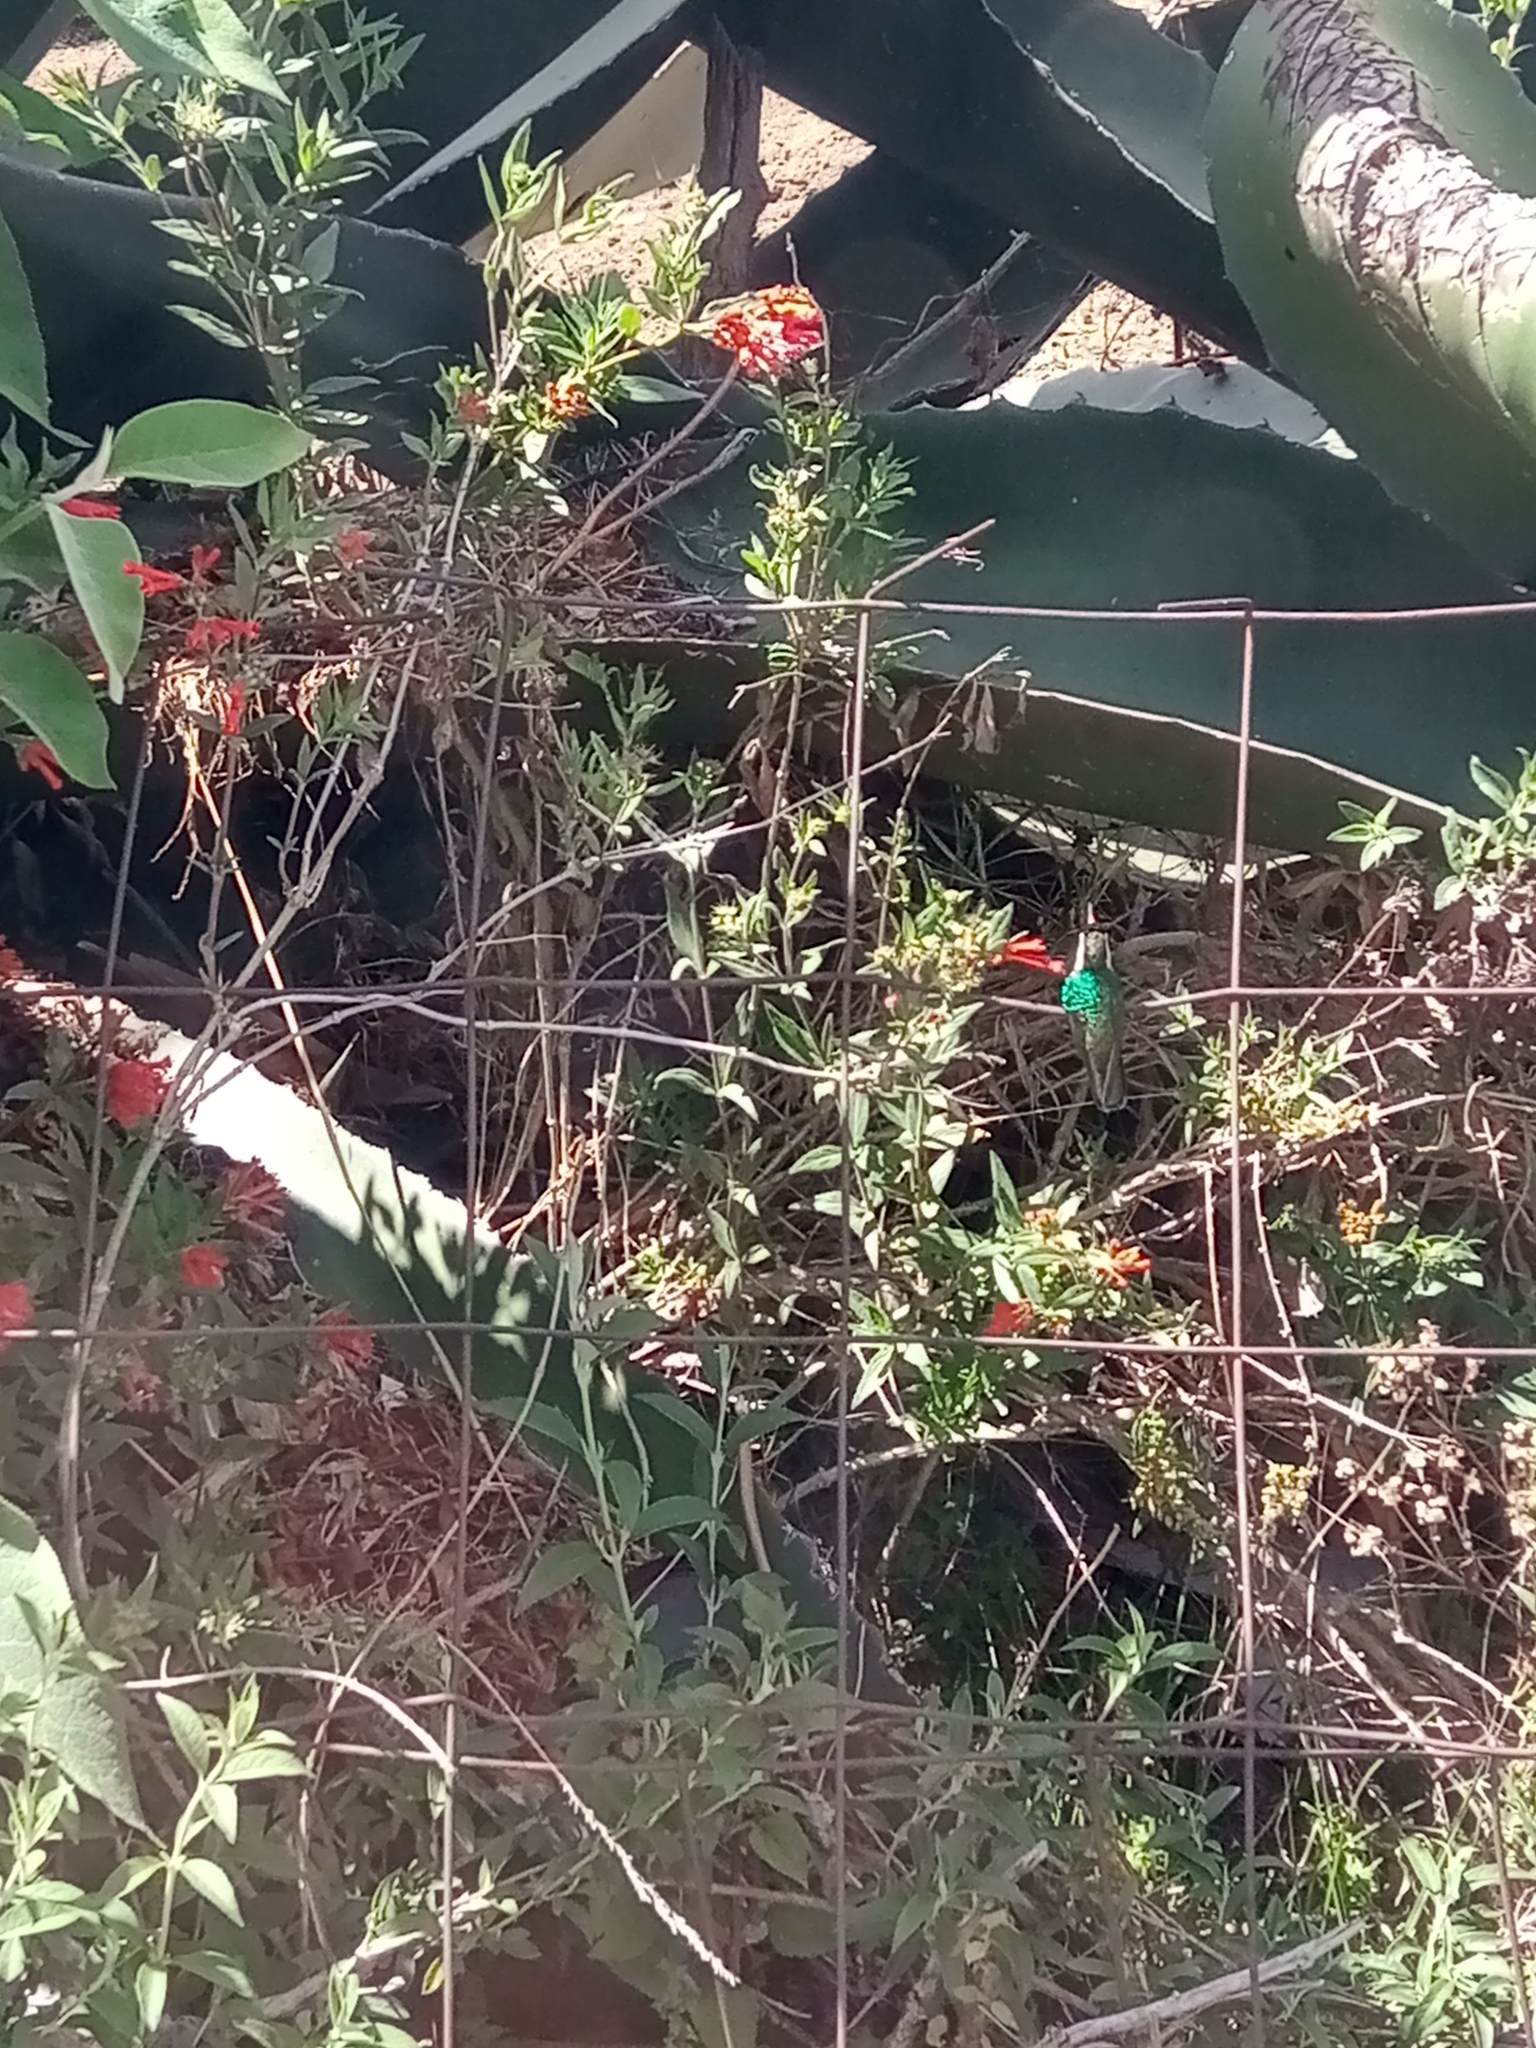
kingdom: Animalia
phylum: Chordata
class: Aves
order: Apodiformes
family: Trochilidae
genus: Basilinna
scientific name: Basilinna leucotis
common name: White-eared hummingbird
